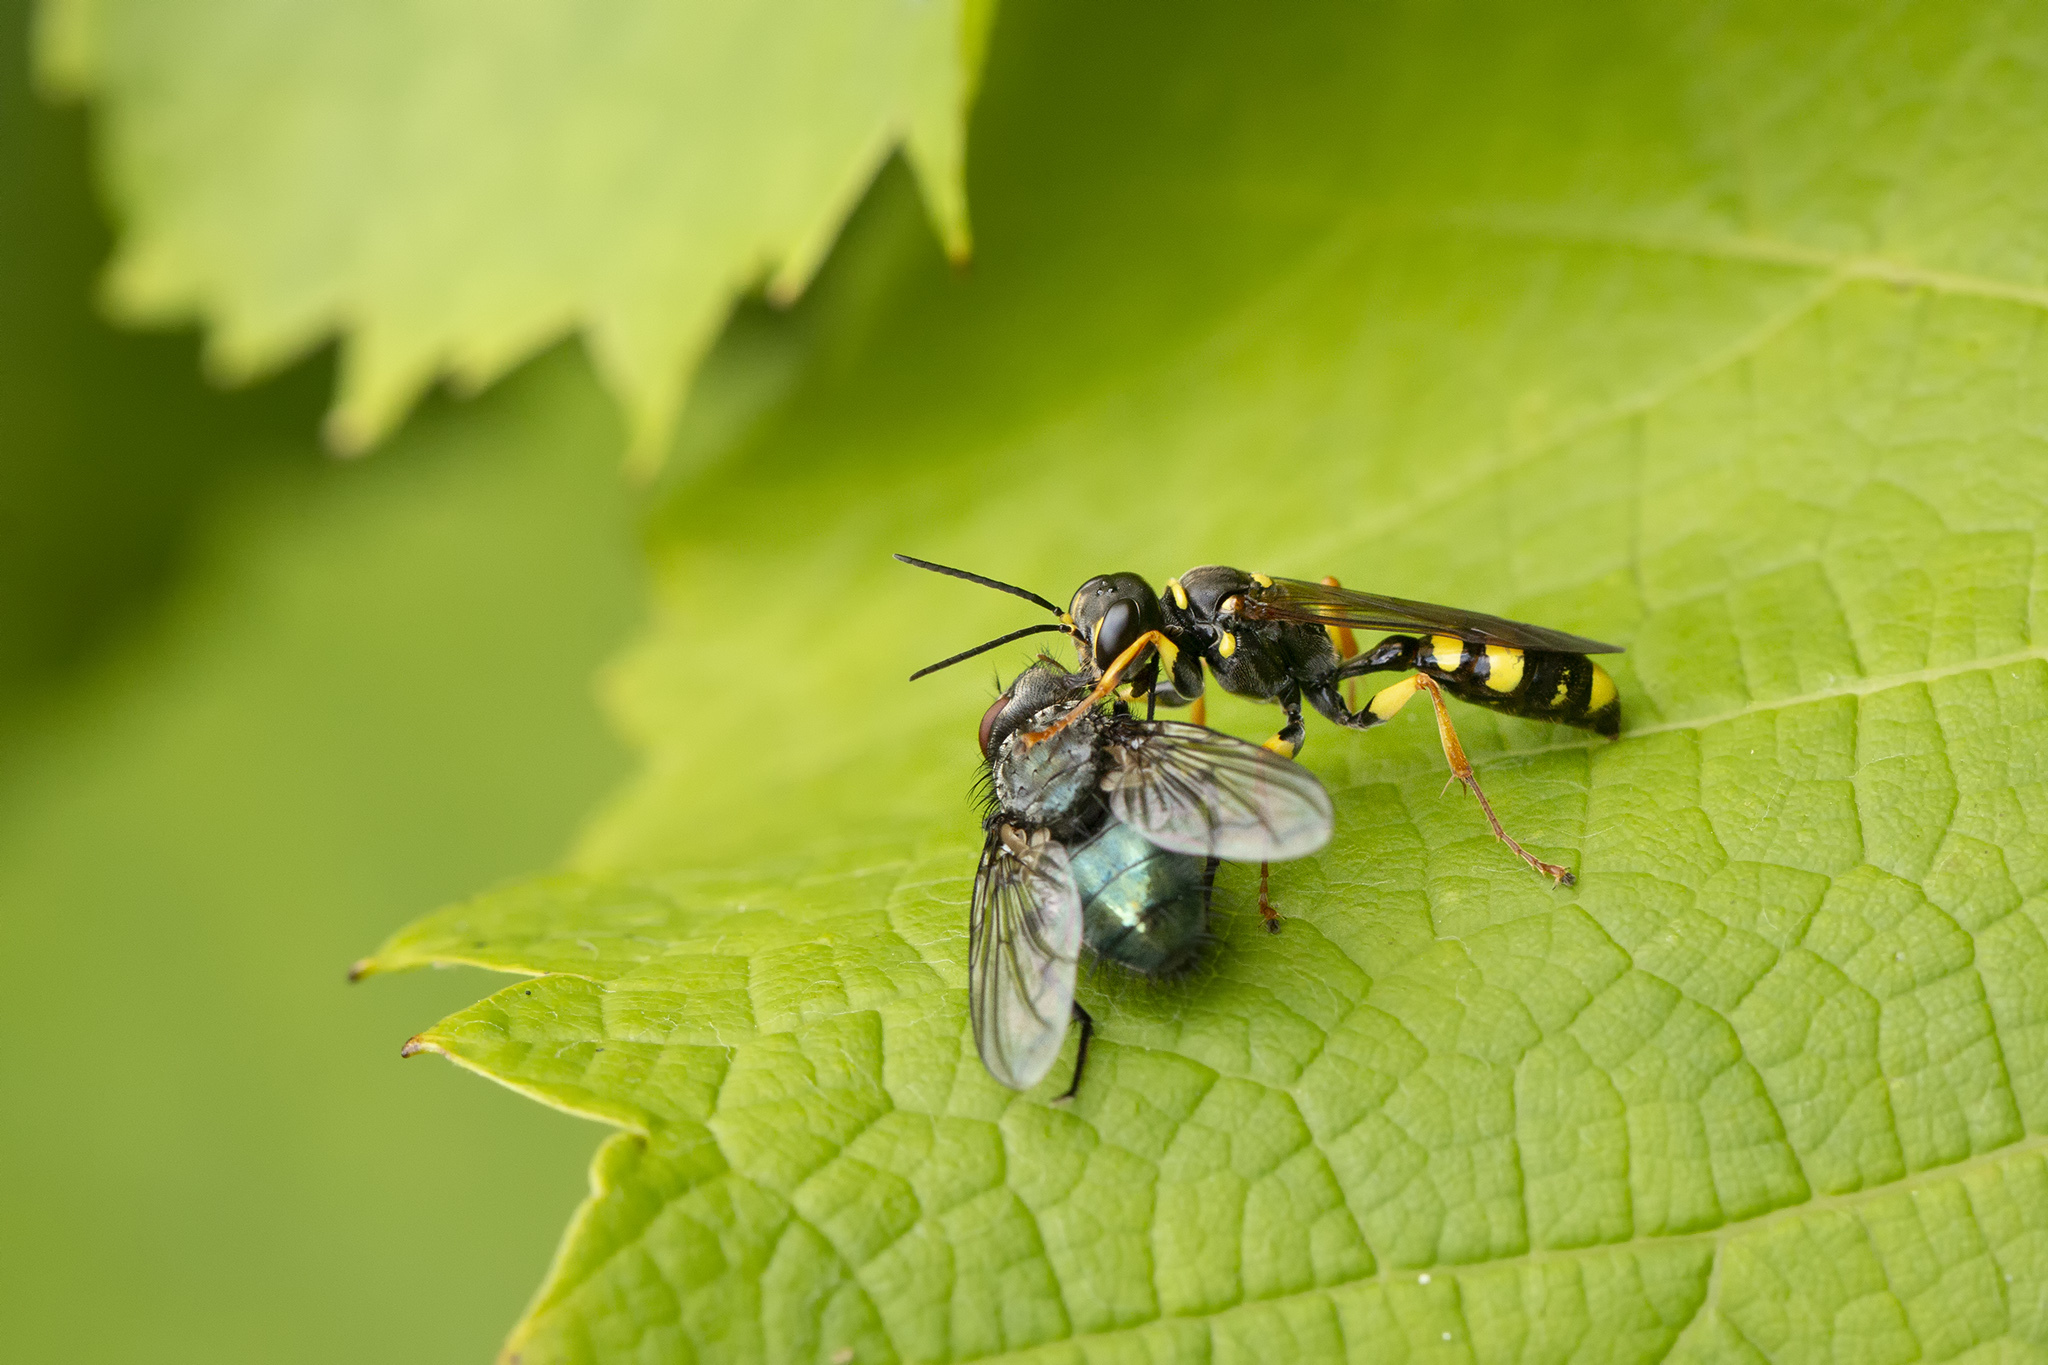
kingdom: Animalia
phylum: Arthropoda
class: Insecta
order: Hymenoptera
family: Crabronidae
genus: Mellinus
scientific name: Mellinus arvensis
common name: Field digger wasp
